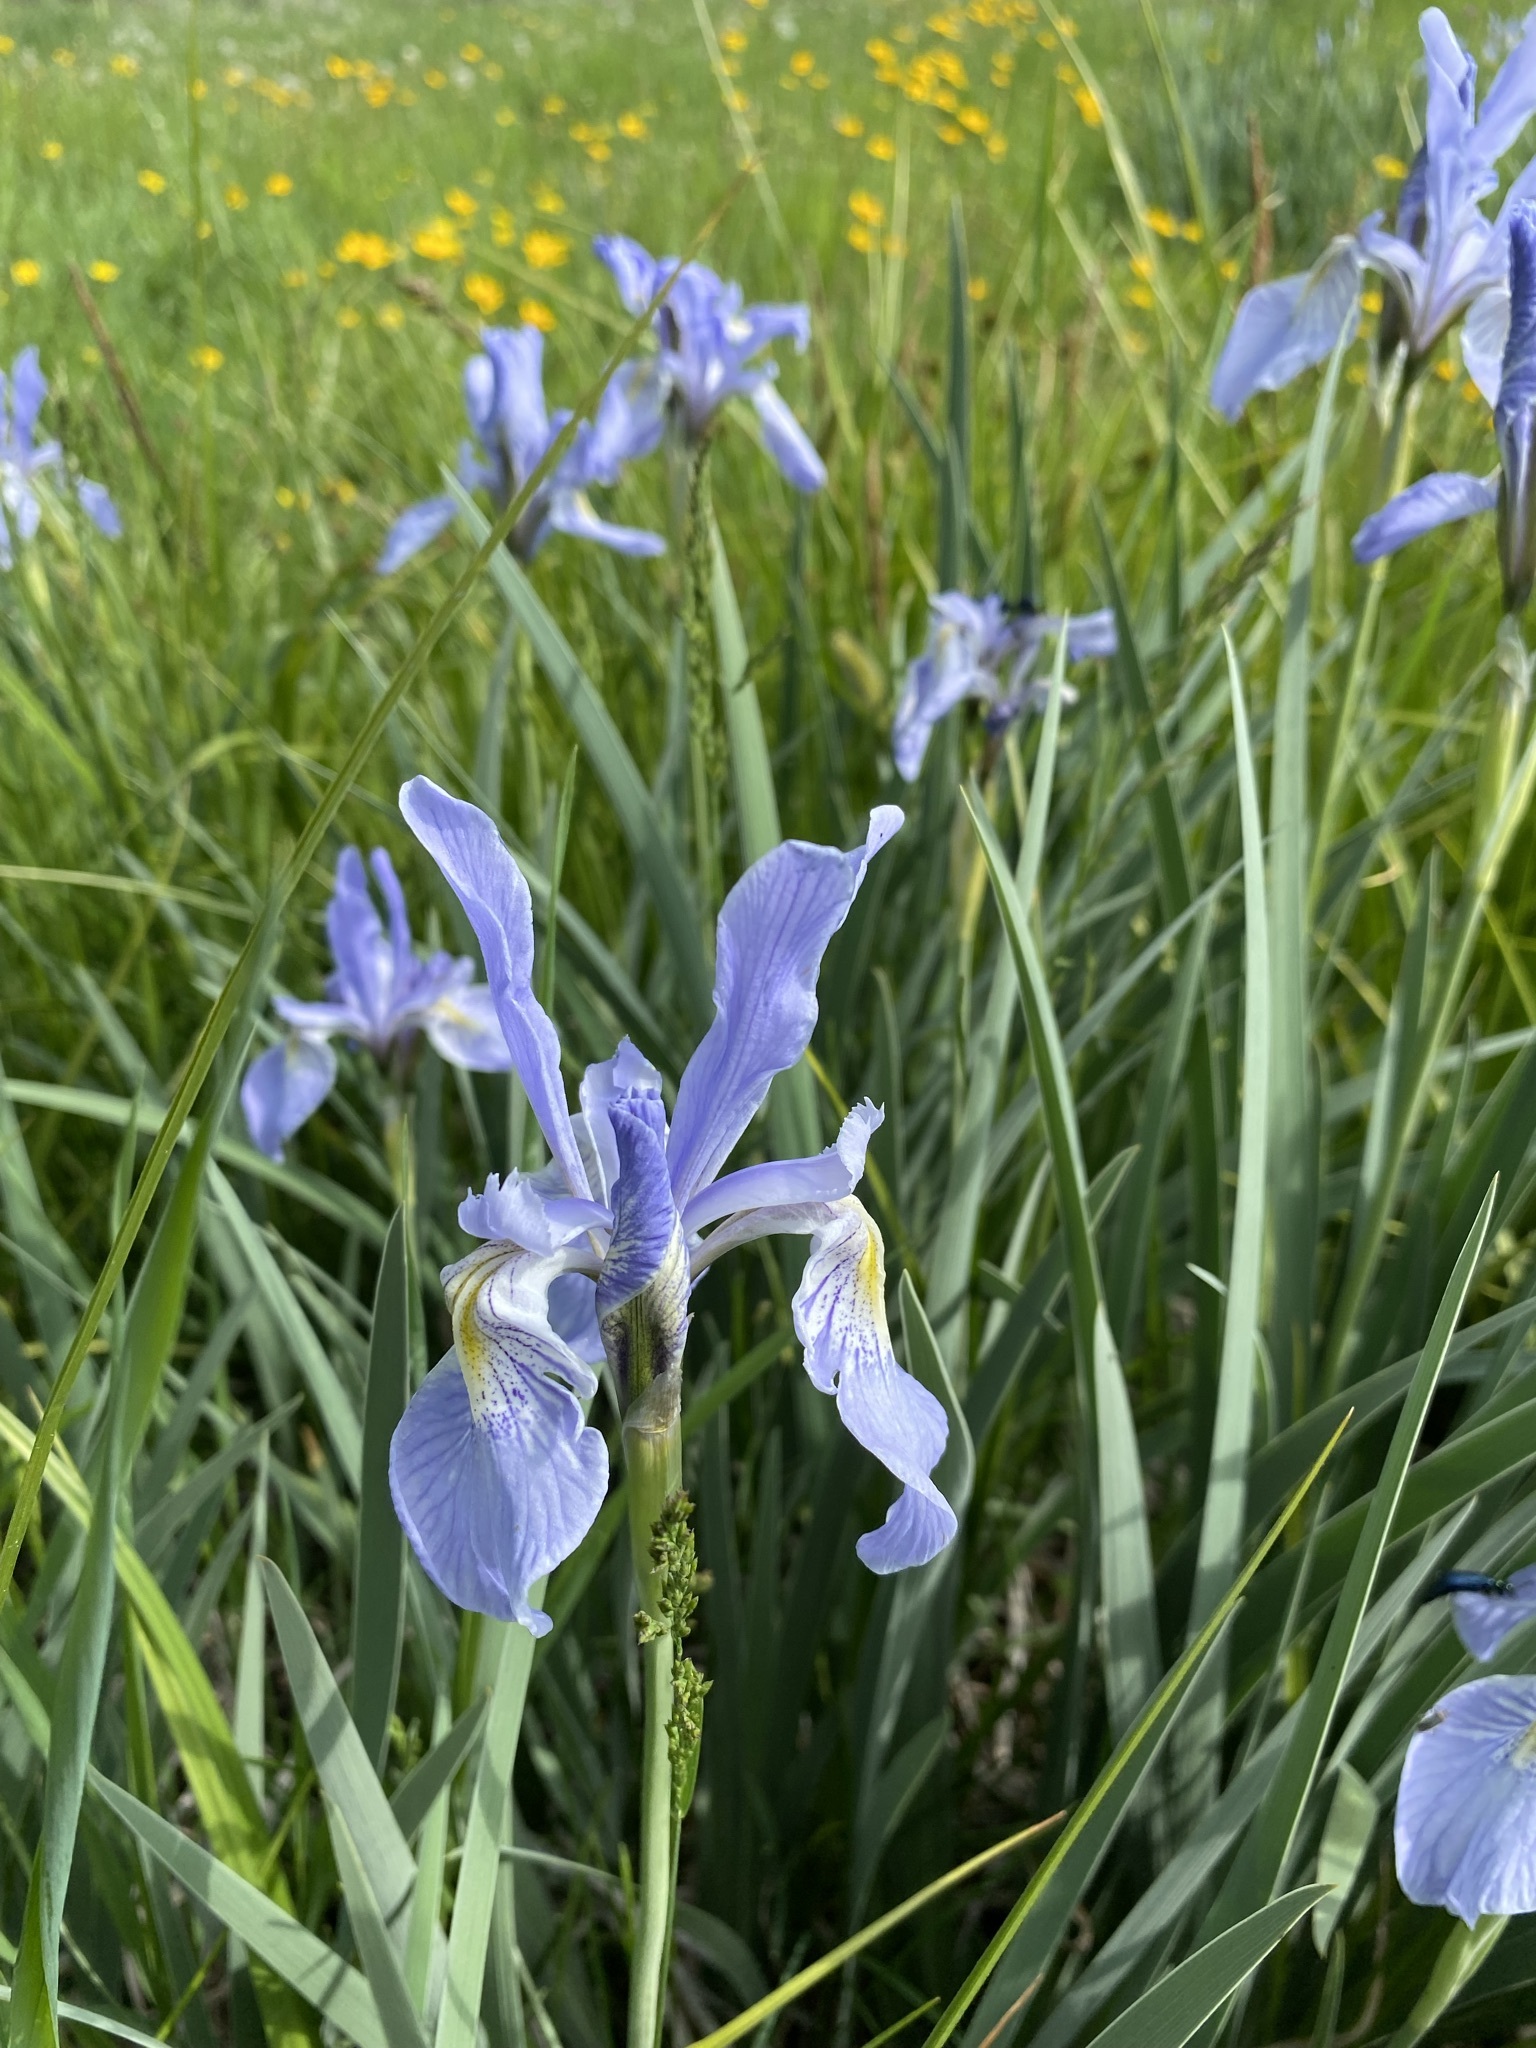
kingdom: Plantae
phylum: Tracheophyta
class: Liliopsida
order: Asparagales
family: Iridaceae
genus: Iris
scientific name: Iris missouriensis
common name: Rocky mountain iris
